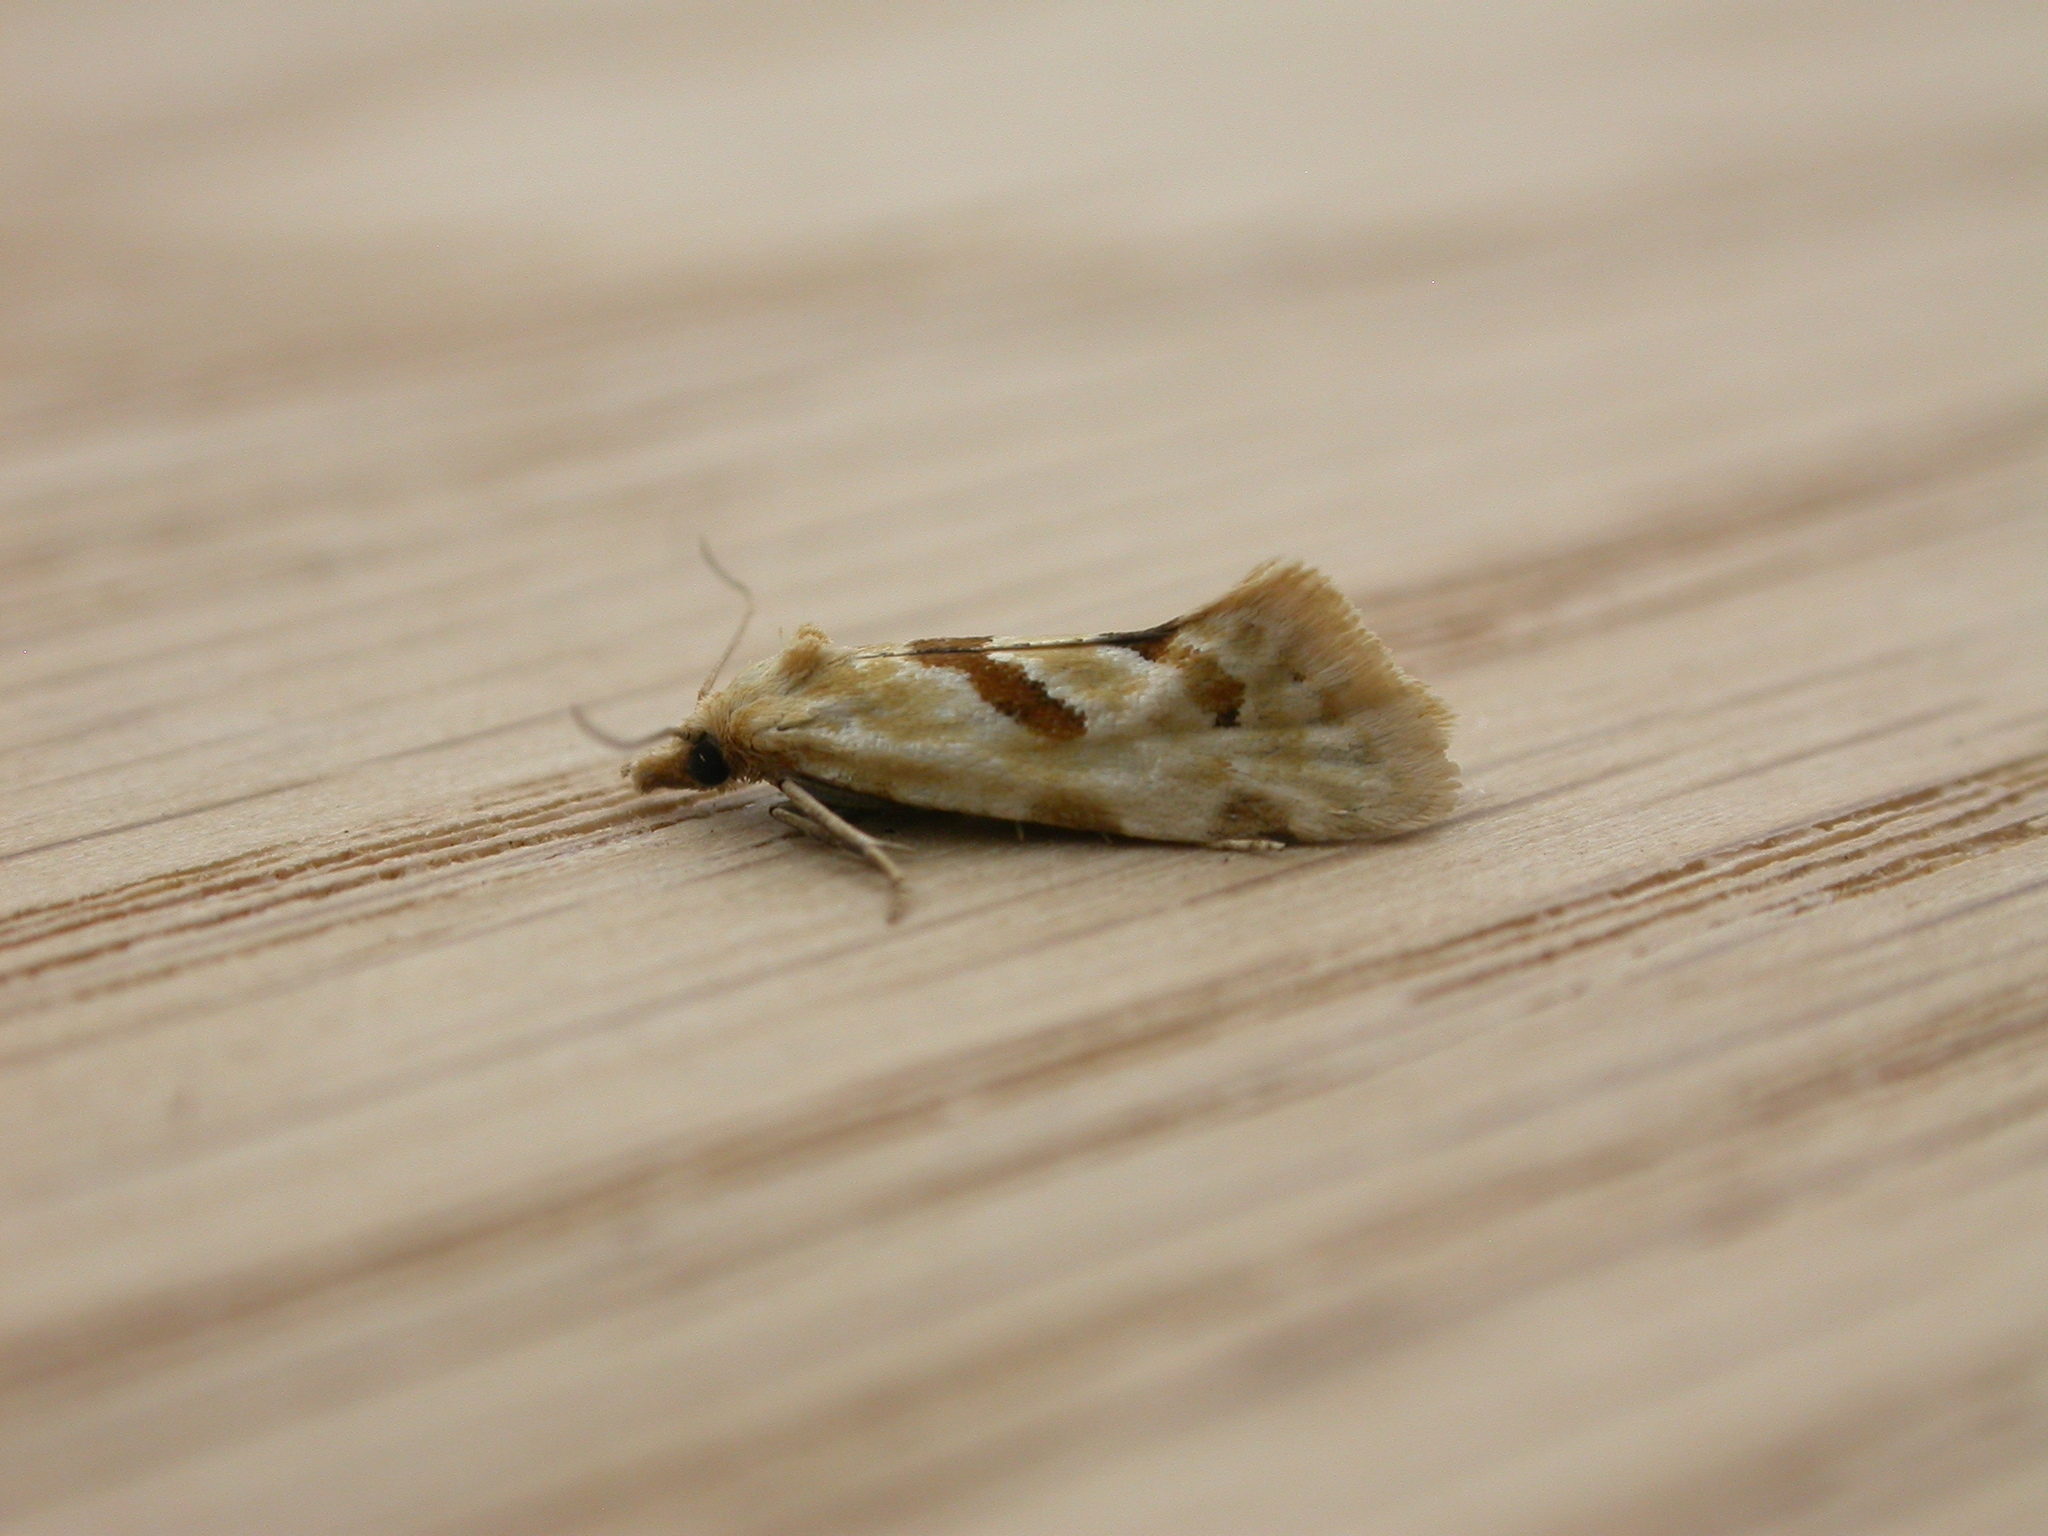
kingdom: Animalia
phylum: Arthropoda
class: Insecta
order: Lepidoptera
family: Tortricidae
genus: Aethes
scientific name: Aethes smeathmanniana
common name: Yarrow conch
